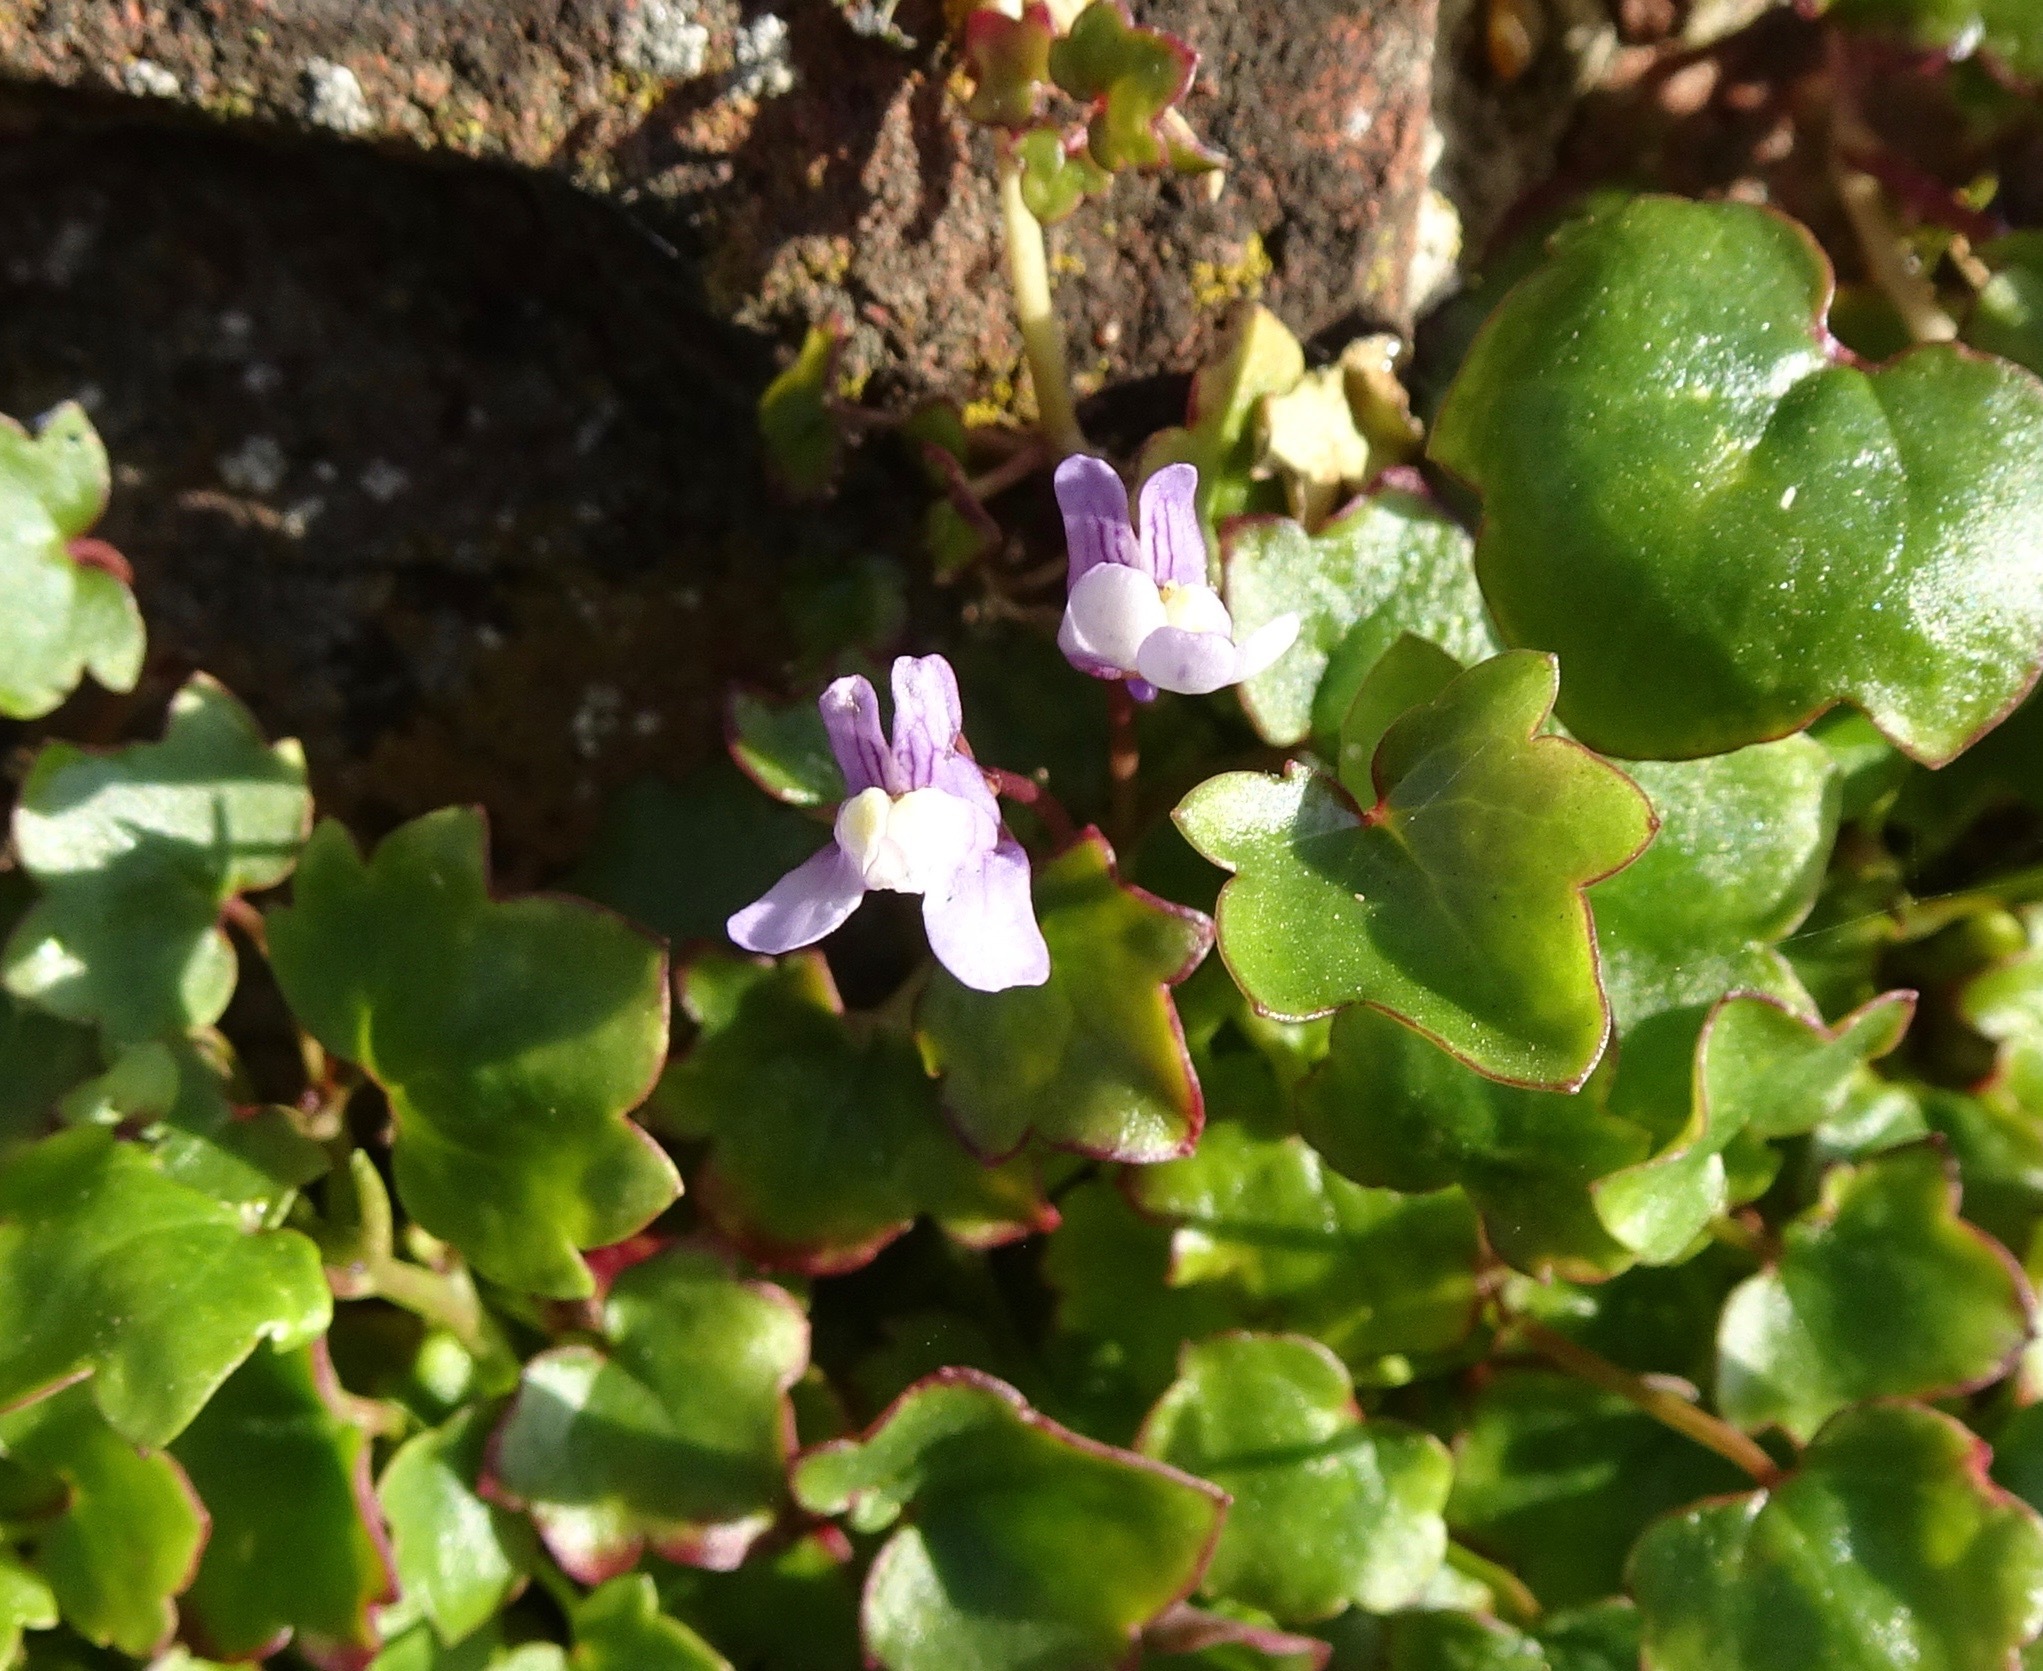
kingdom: Plantae
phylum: Tracheophyta
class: Magnoliopsida
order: Lamiales
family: Plantaginaceae
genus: Cymbalaria
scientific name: Cymbalaria muralis
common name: Ivy-leaved toadflax
